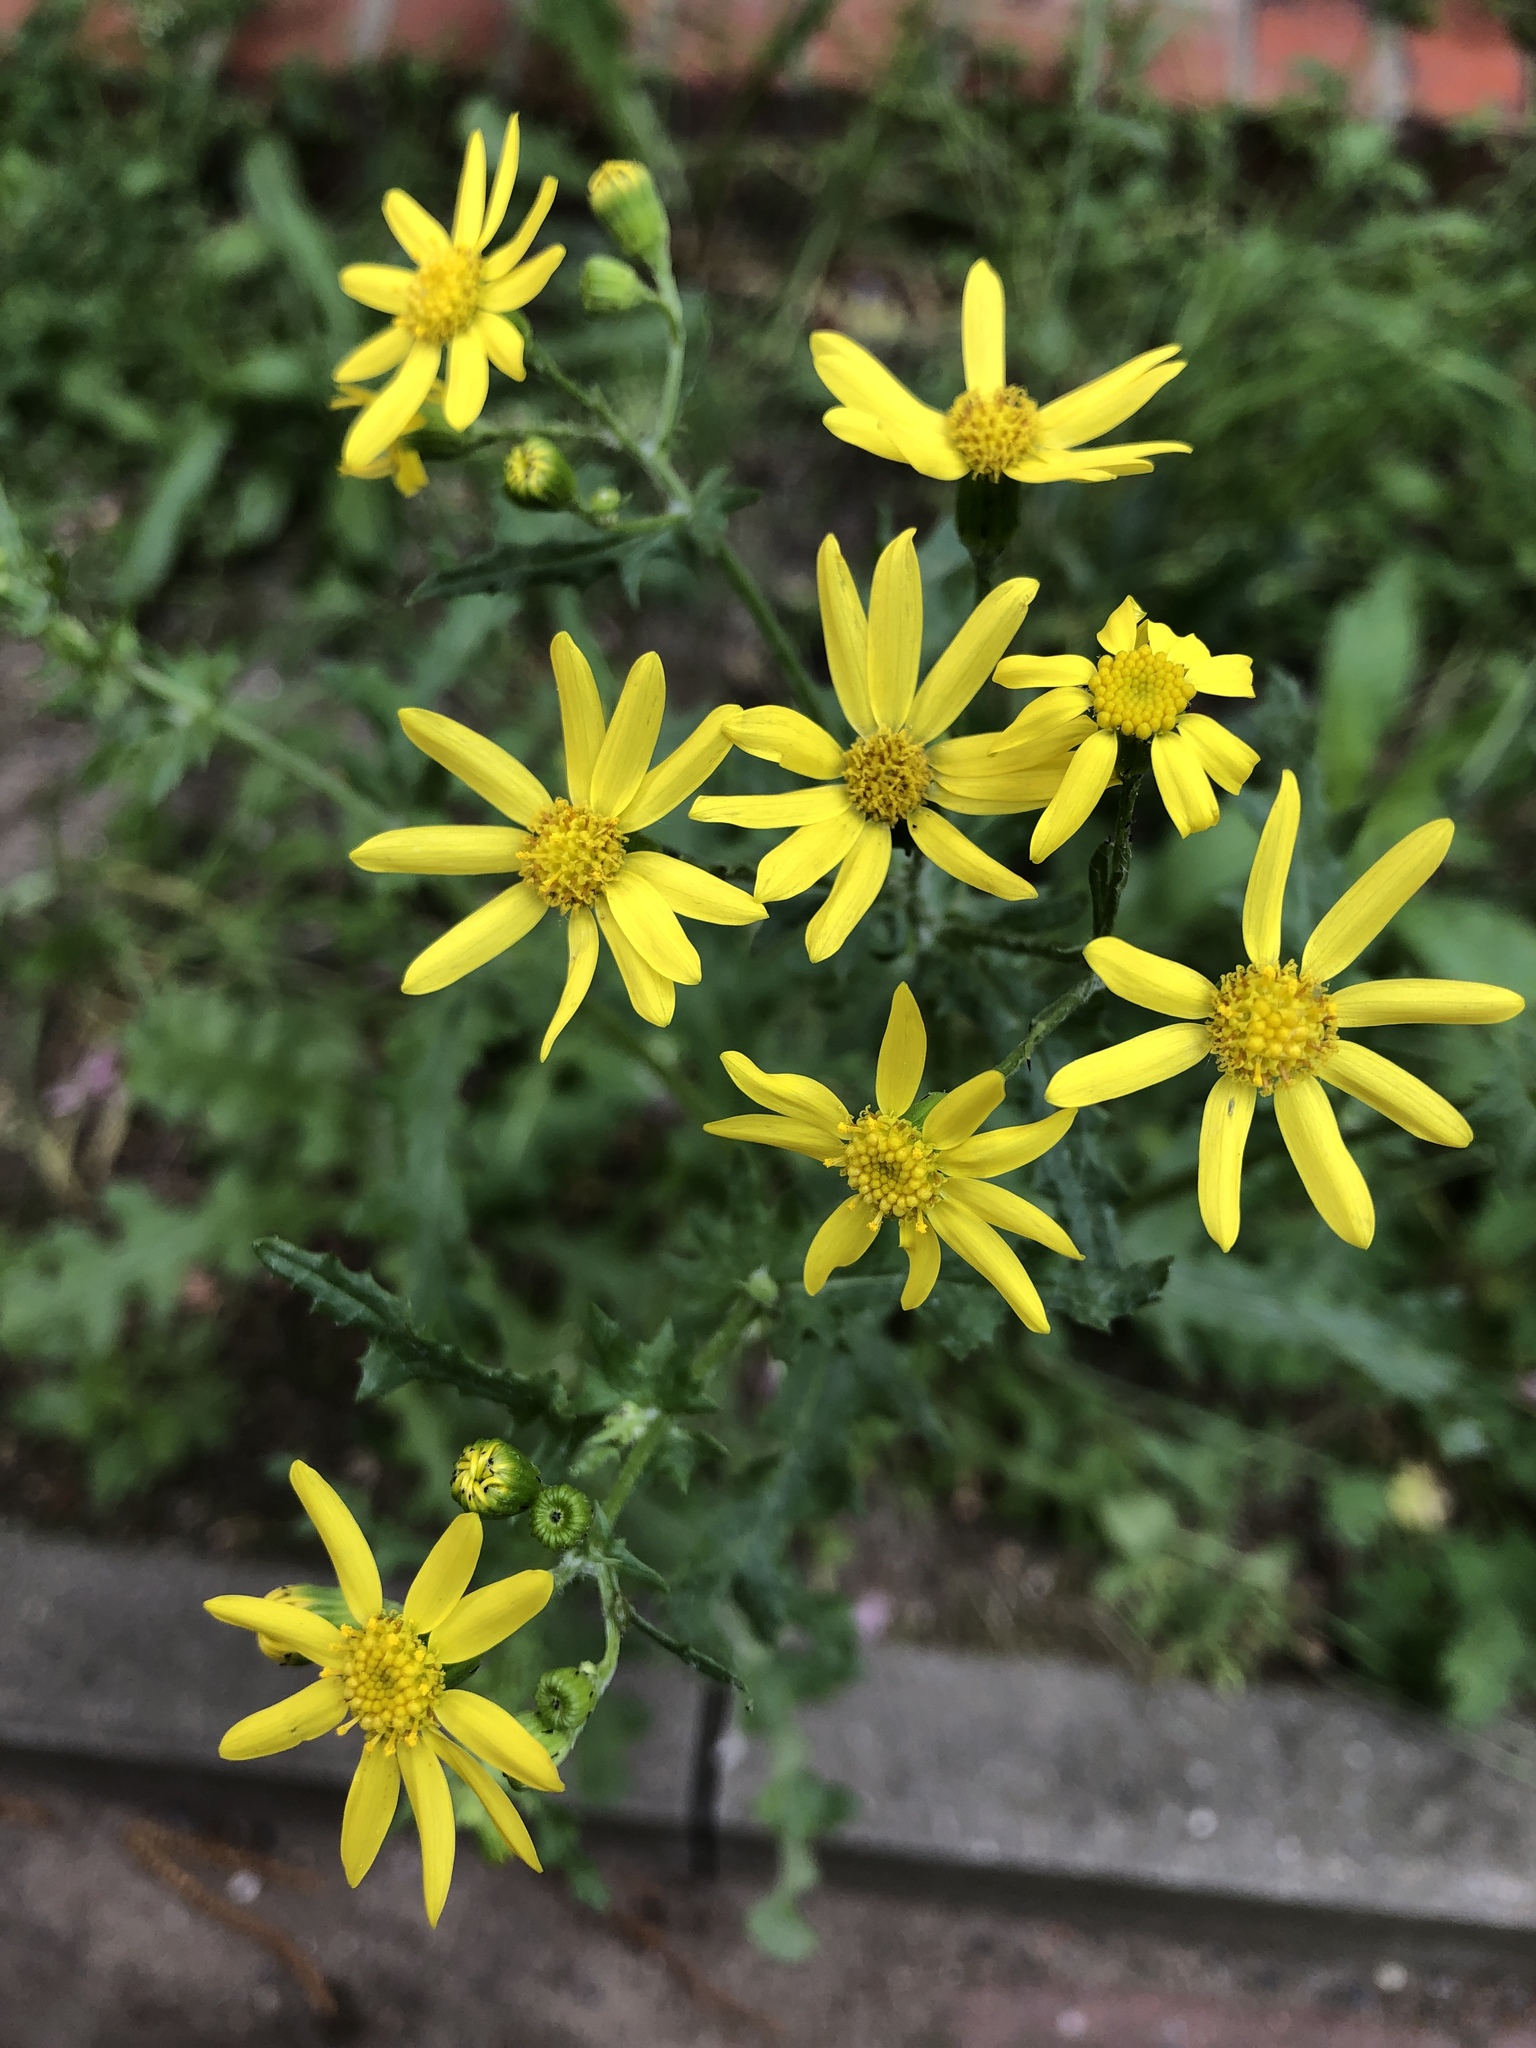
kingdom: Plantae
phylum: Tracheophyta
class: Magnoliopsida
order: Asterales
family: Asteraceae
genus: Senecio
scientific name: Senecio vernalis
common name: Eastern groundsel
